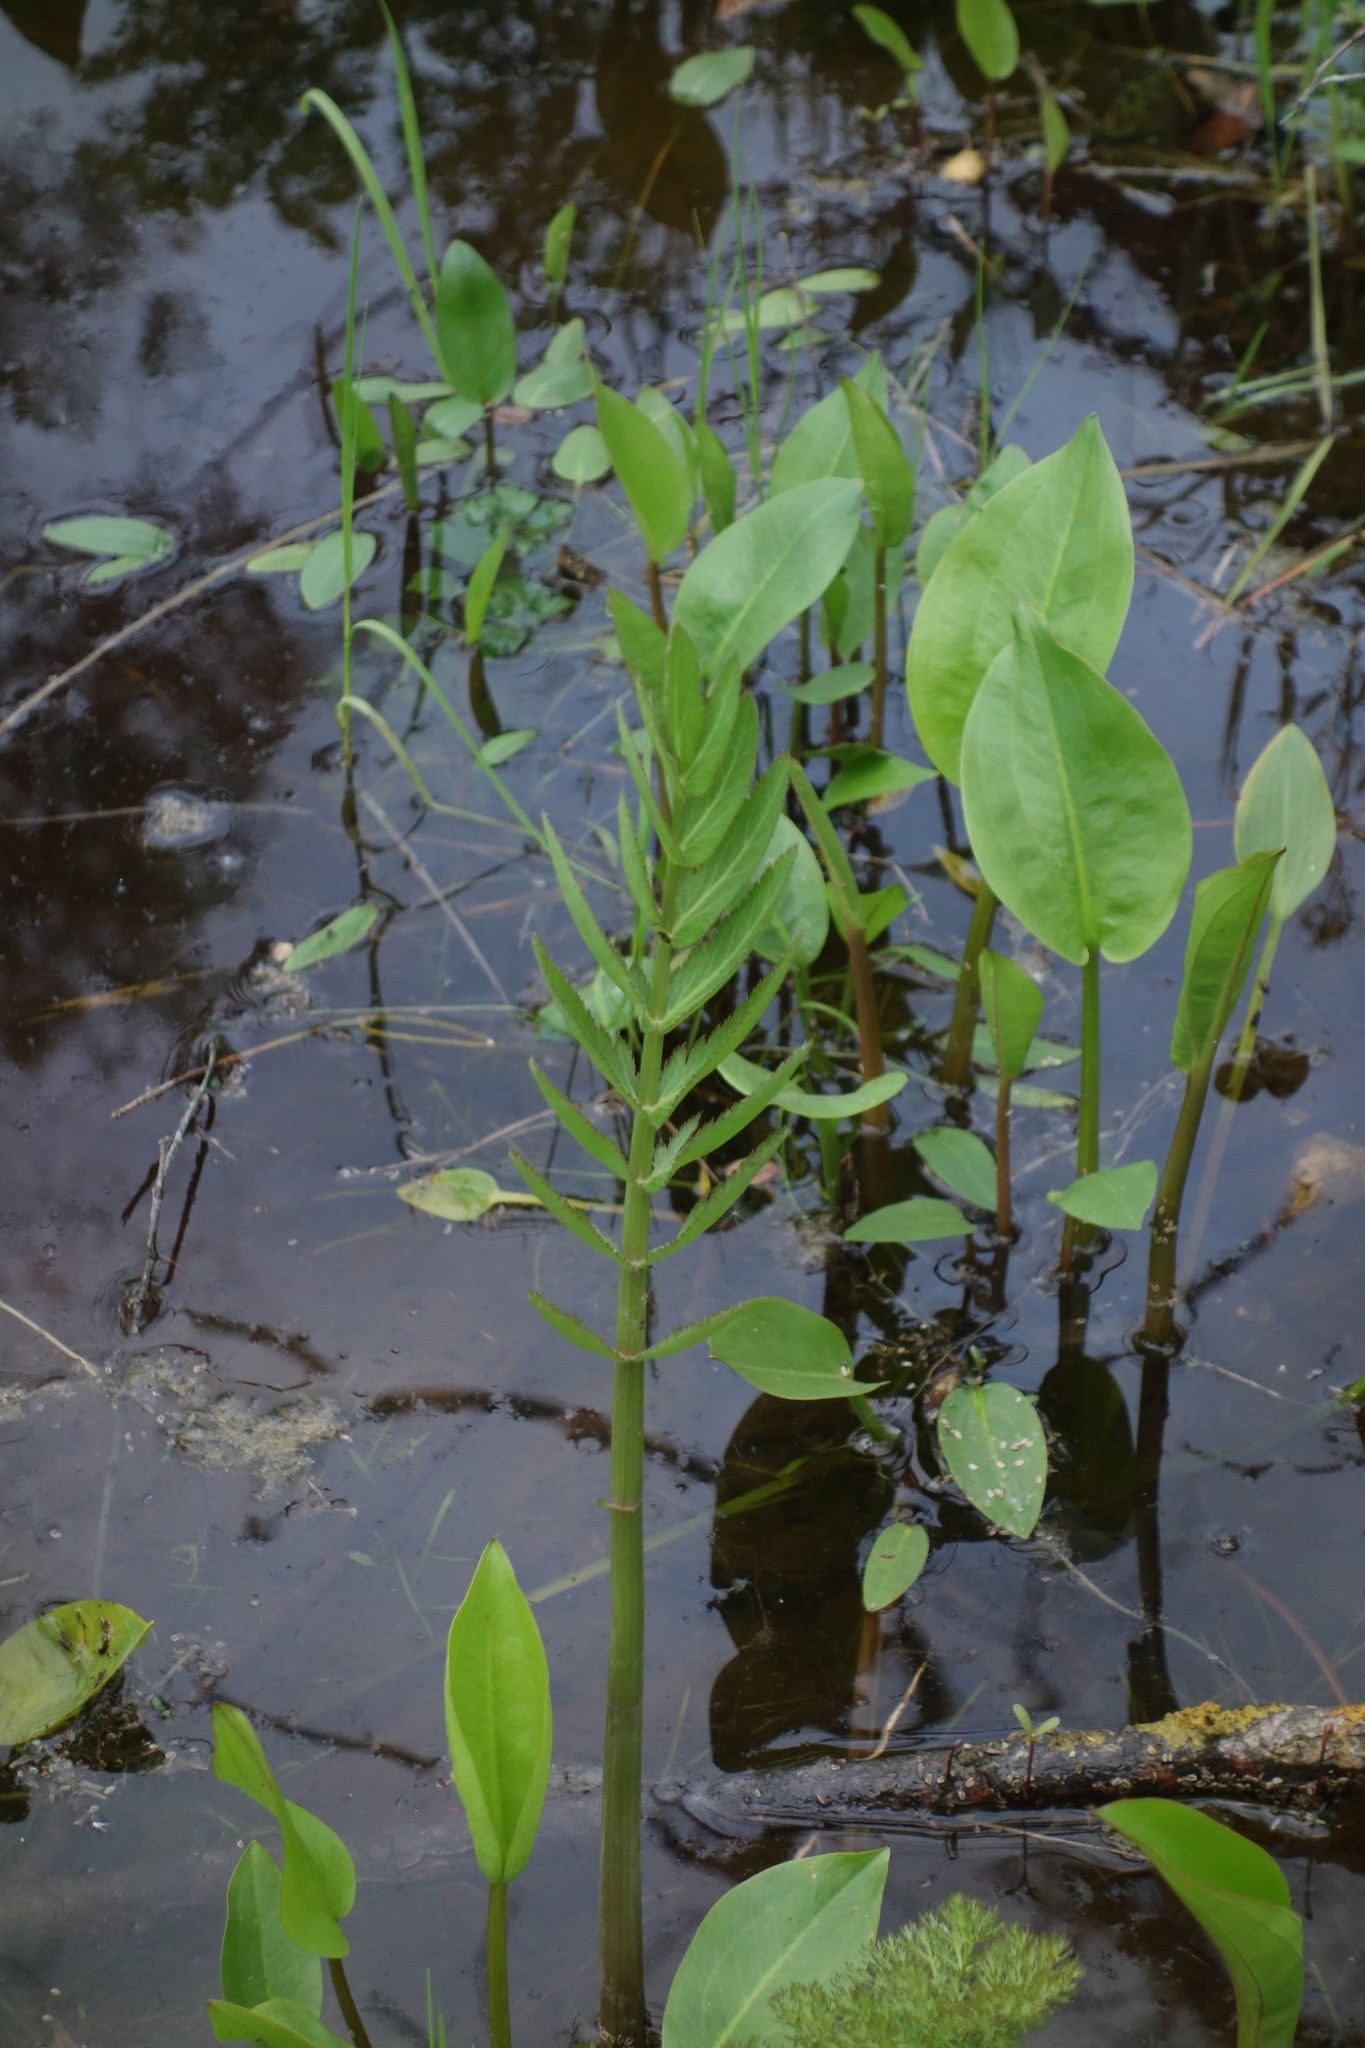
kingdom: Plantae
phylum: Tracheophyta
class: Magnoliopsida
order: Apiales
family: Apiaceae
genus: Sium
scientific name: Sium latifolium
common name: Greater water-parsnip
